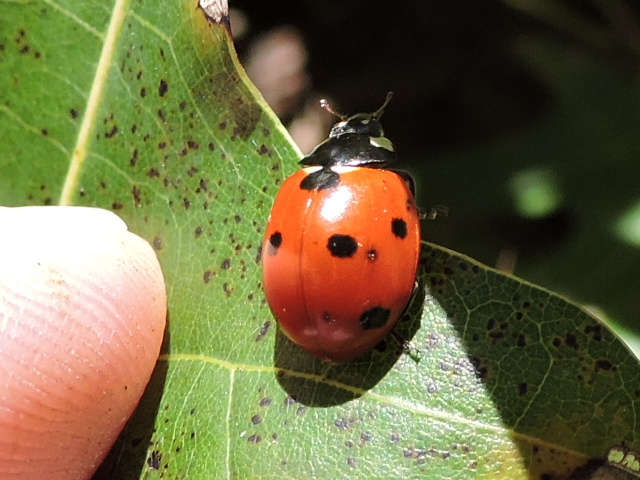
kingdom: Animalia
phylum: Arthropoda
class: Insecta
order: Coleoptera
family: Coccinellidae
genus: Coccinella
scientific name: Coccinella septempunctata
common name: Sevenspotted lady beetle
